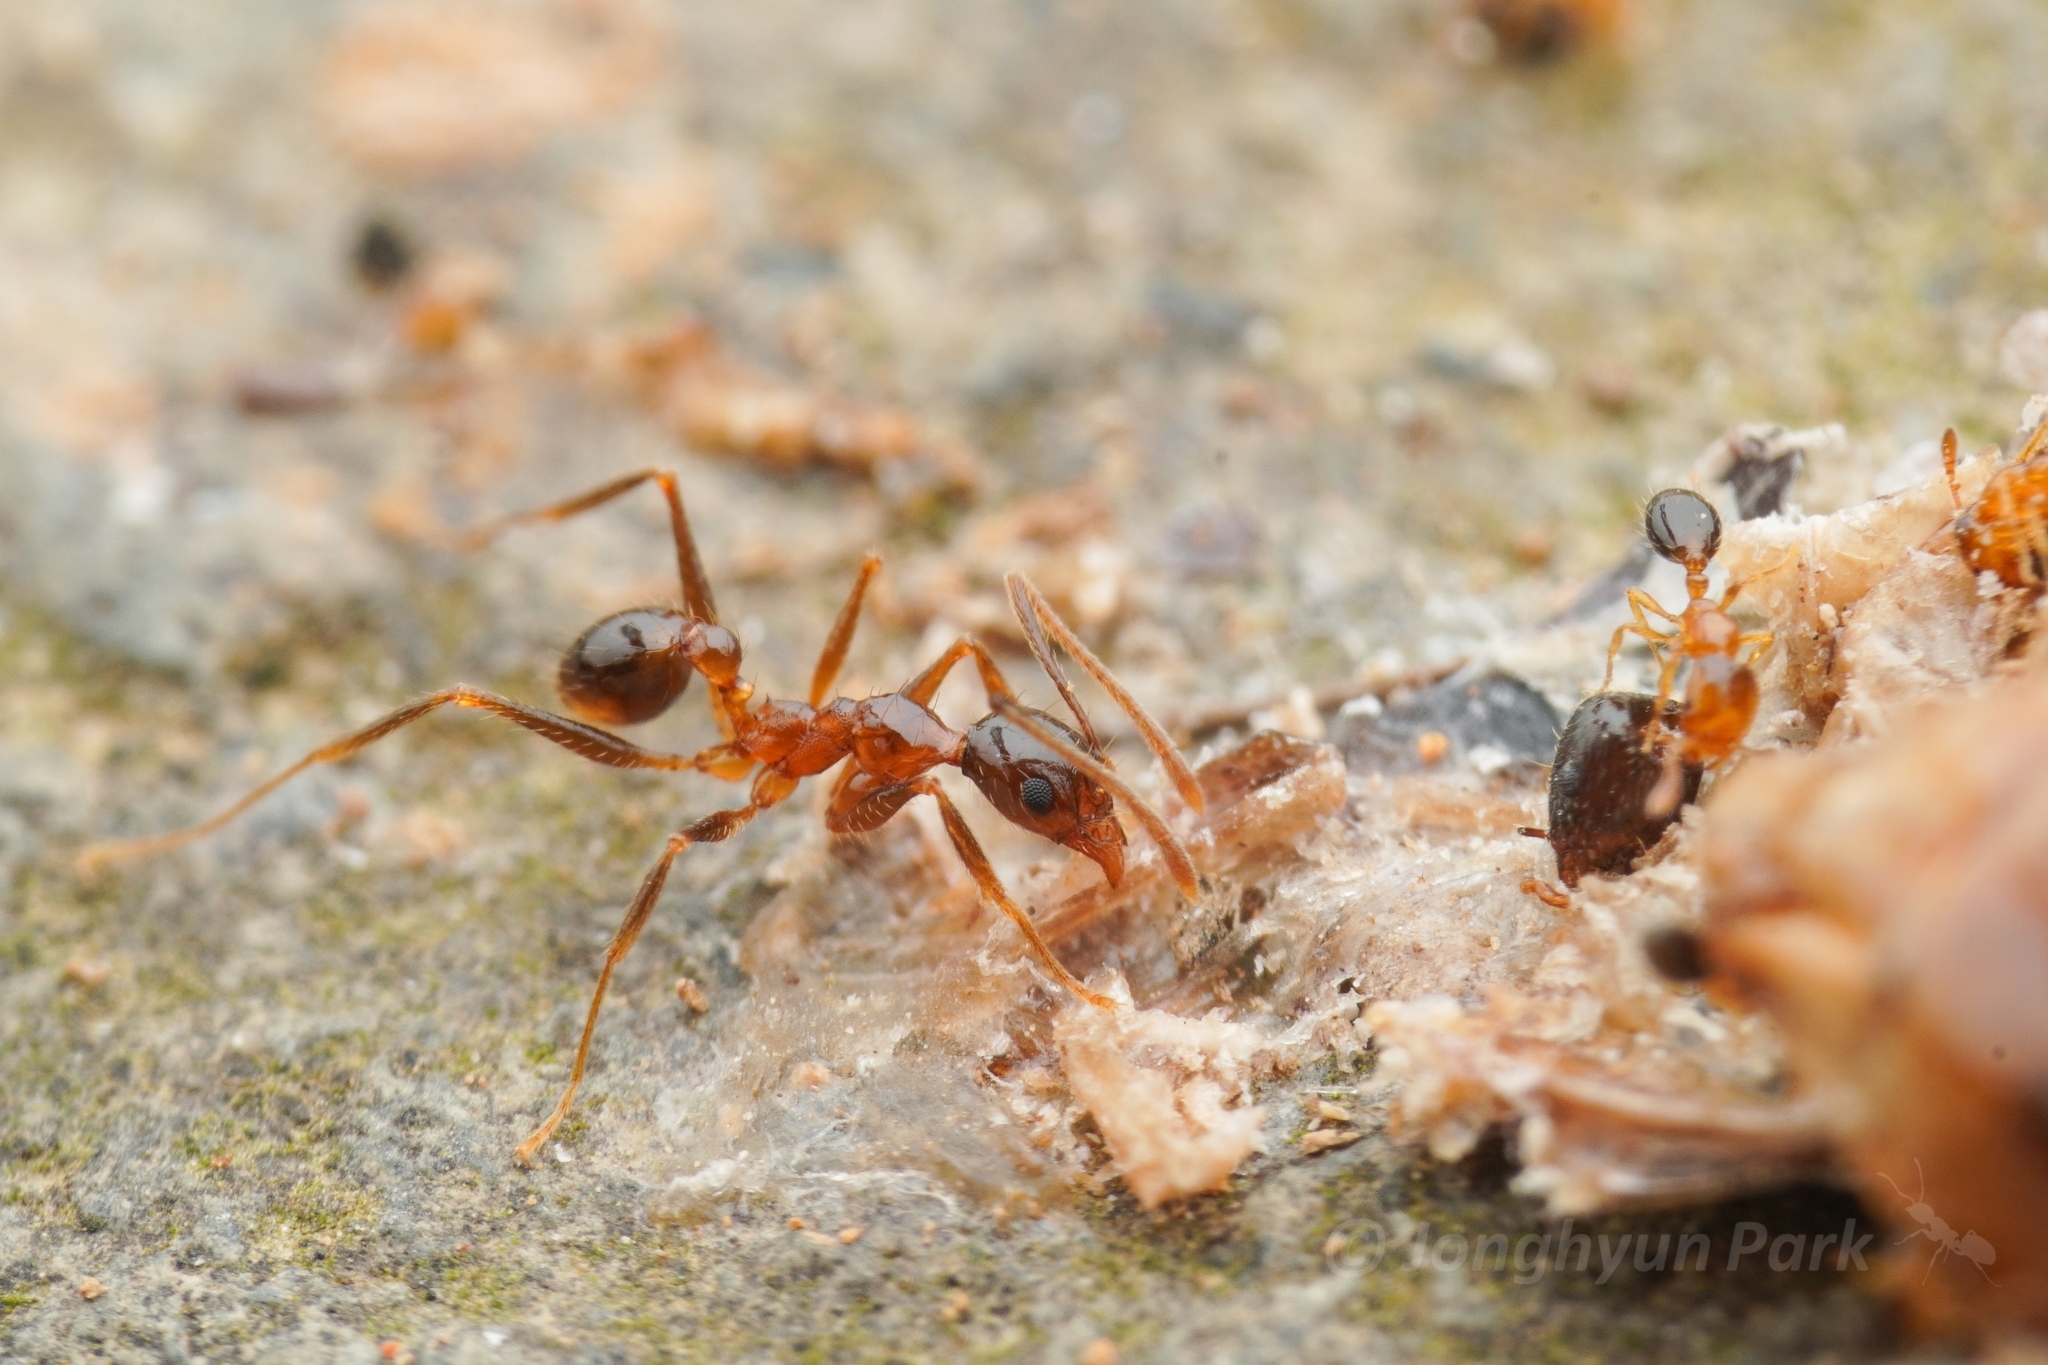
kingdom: Animalia
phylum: Arthropoda
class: Insecta
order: Hymenoptera
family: Formicidae
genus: Pheidole
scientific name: Pheidole noda
